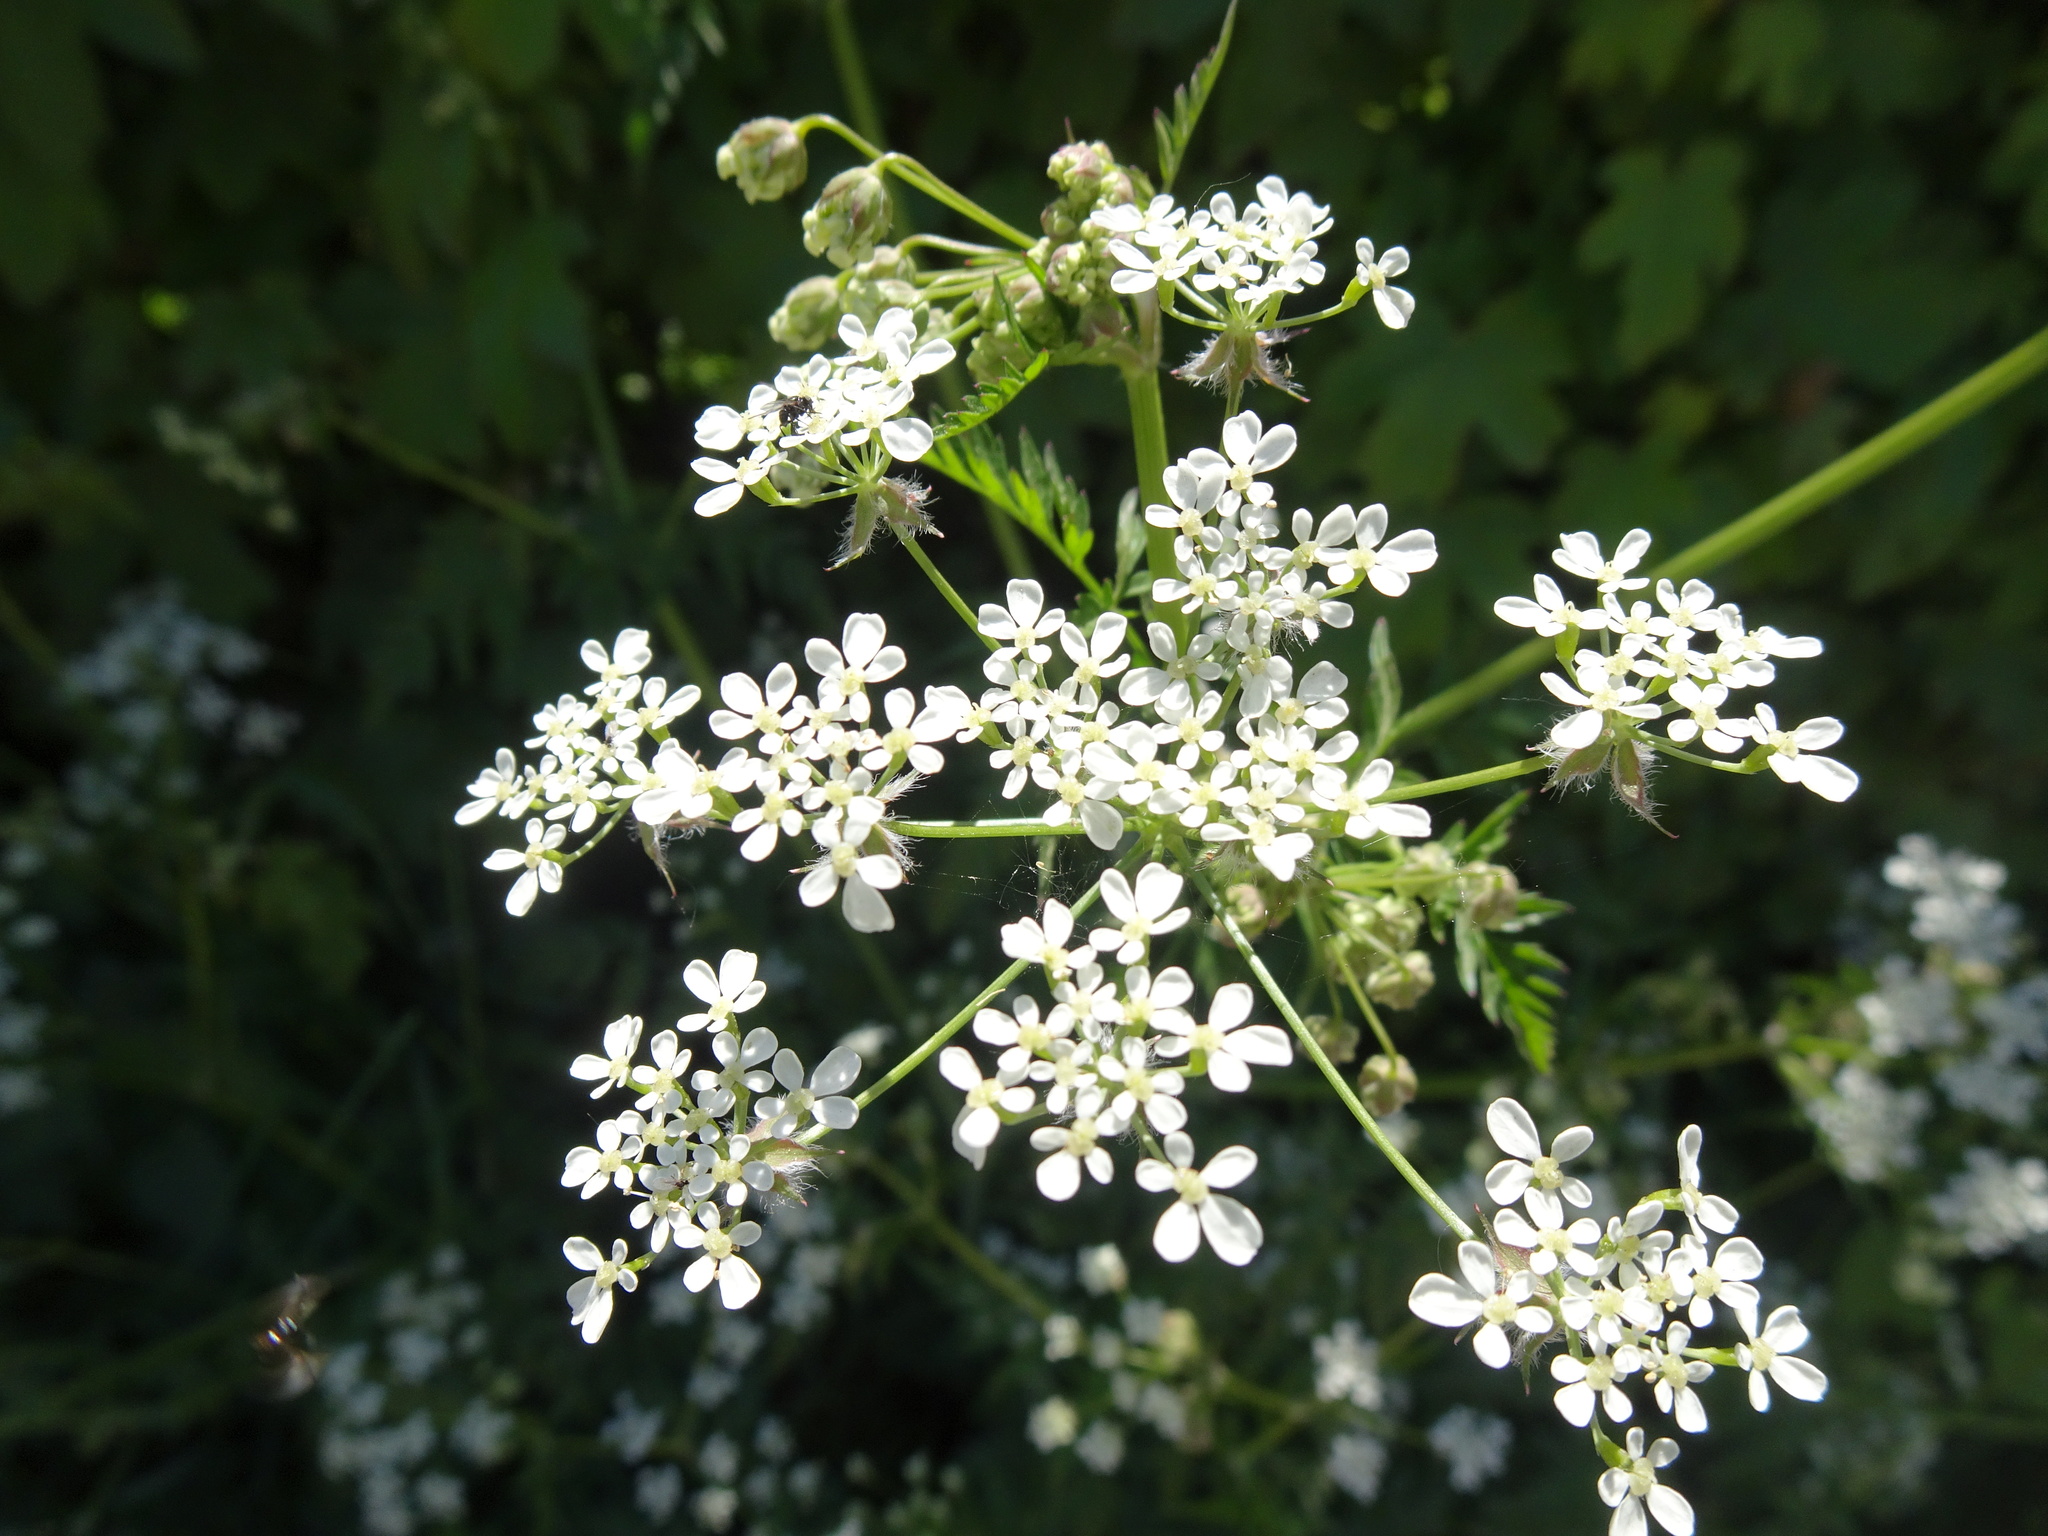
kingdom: Plantae
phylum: Tracheophyta
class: Magnoliopsida
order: Apiales
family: Apiaceae
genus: Anthriscus
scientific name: Anthriscus sylvestris
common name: Cow parsley
